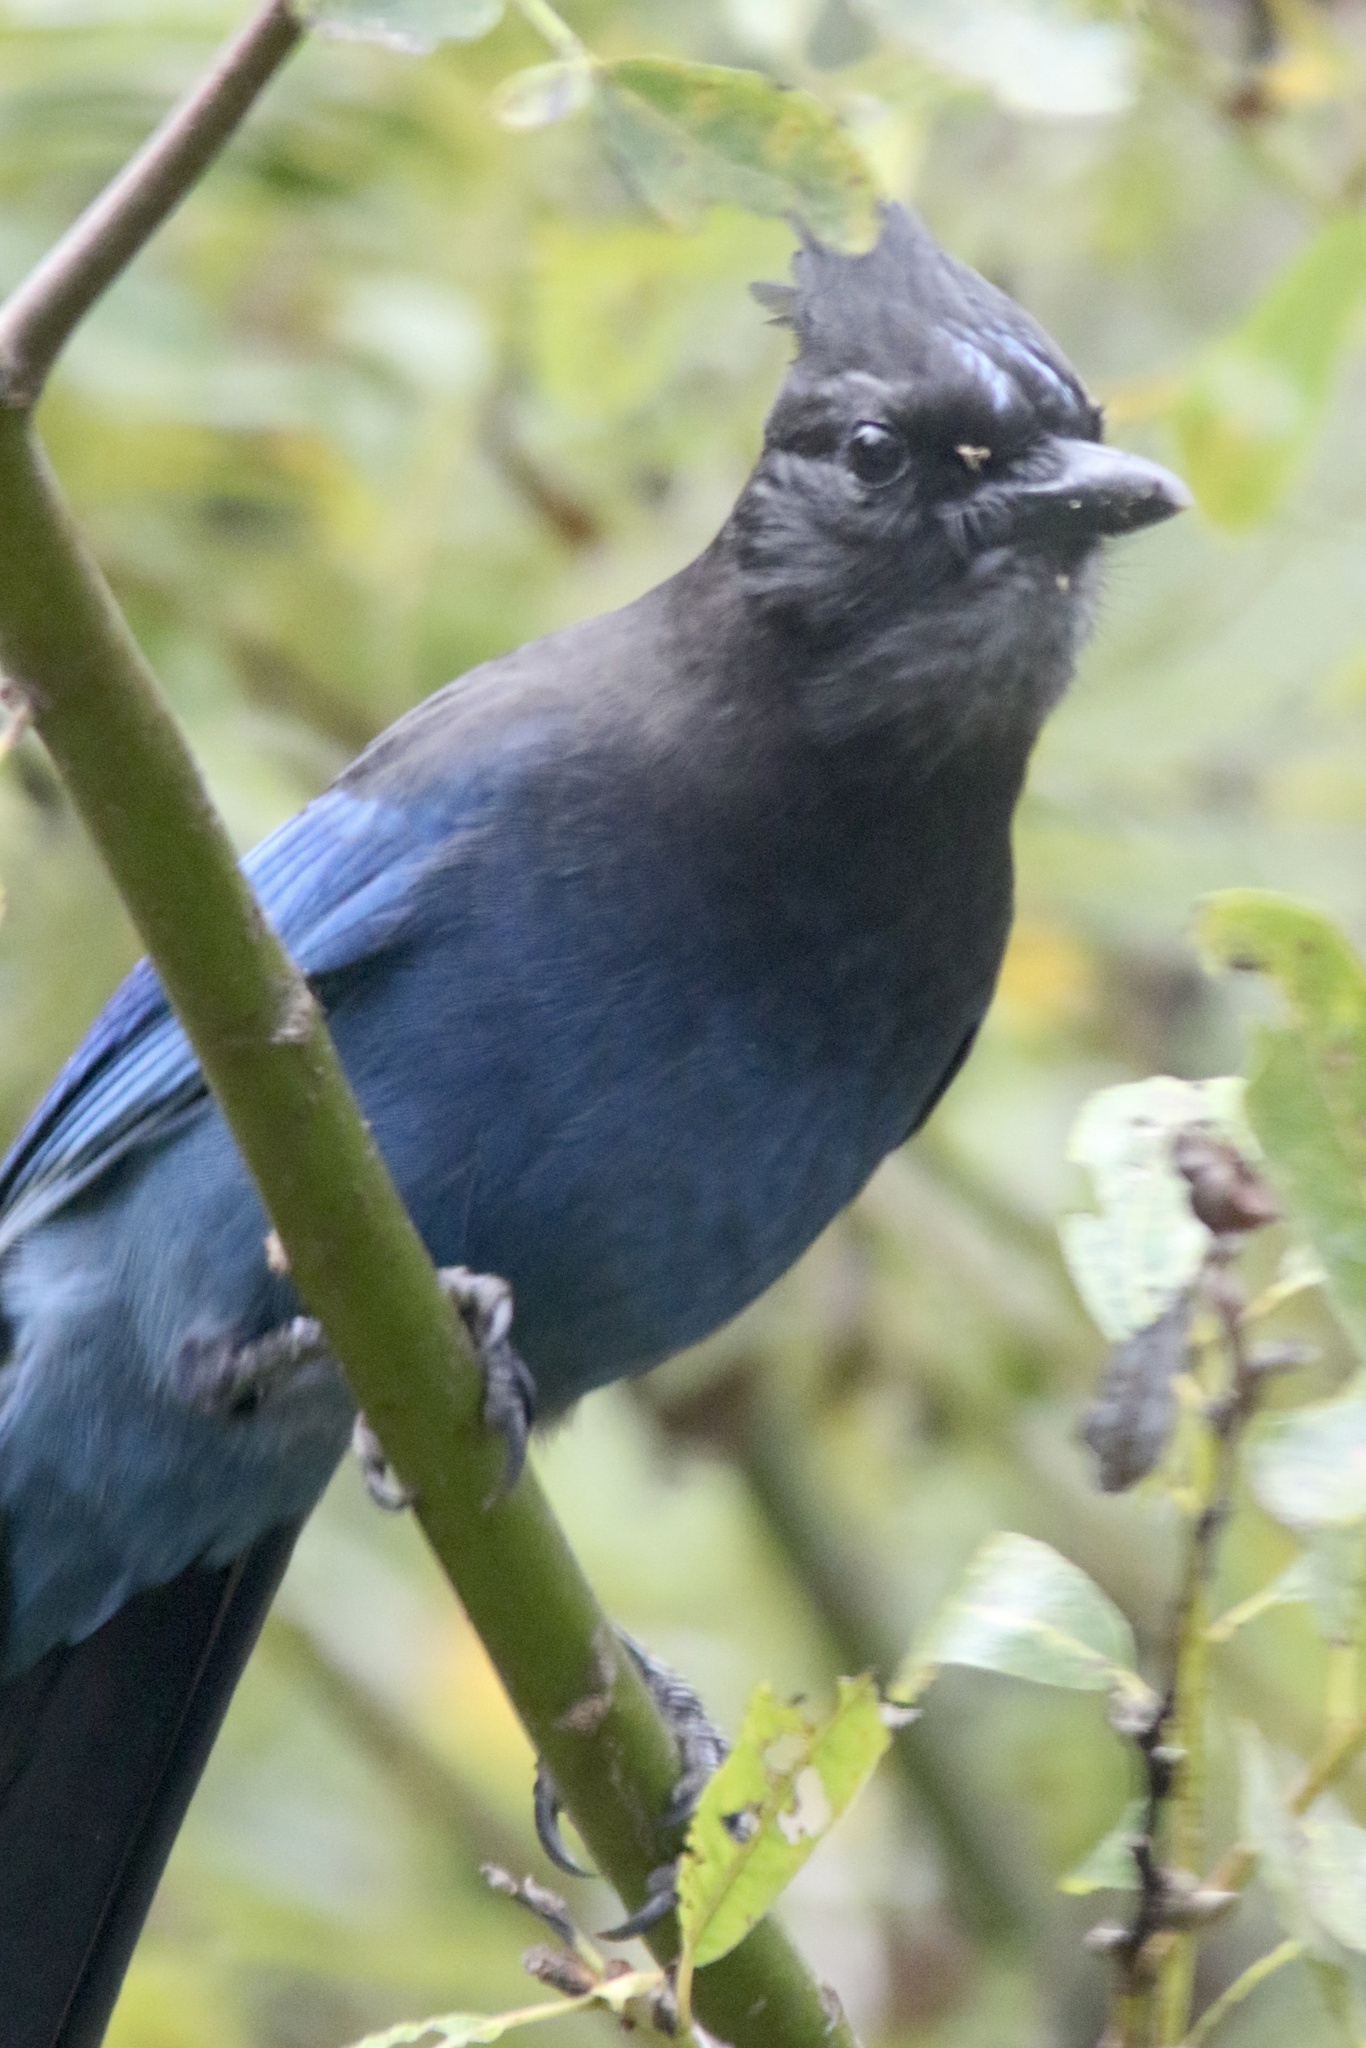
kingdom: Animalia
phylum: Chordata
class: Aves
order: Passeriformes
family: Corvidae
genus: Cyanocitta
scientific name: Cyanocitta stelleri
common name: Steller's jay
